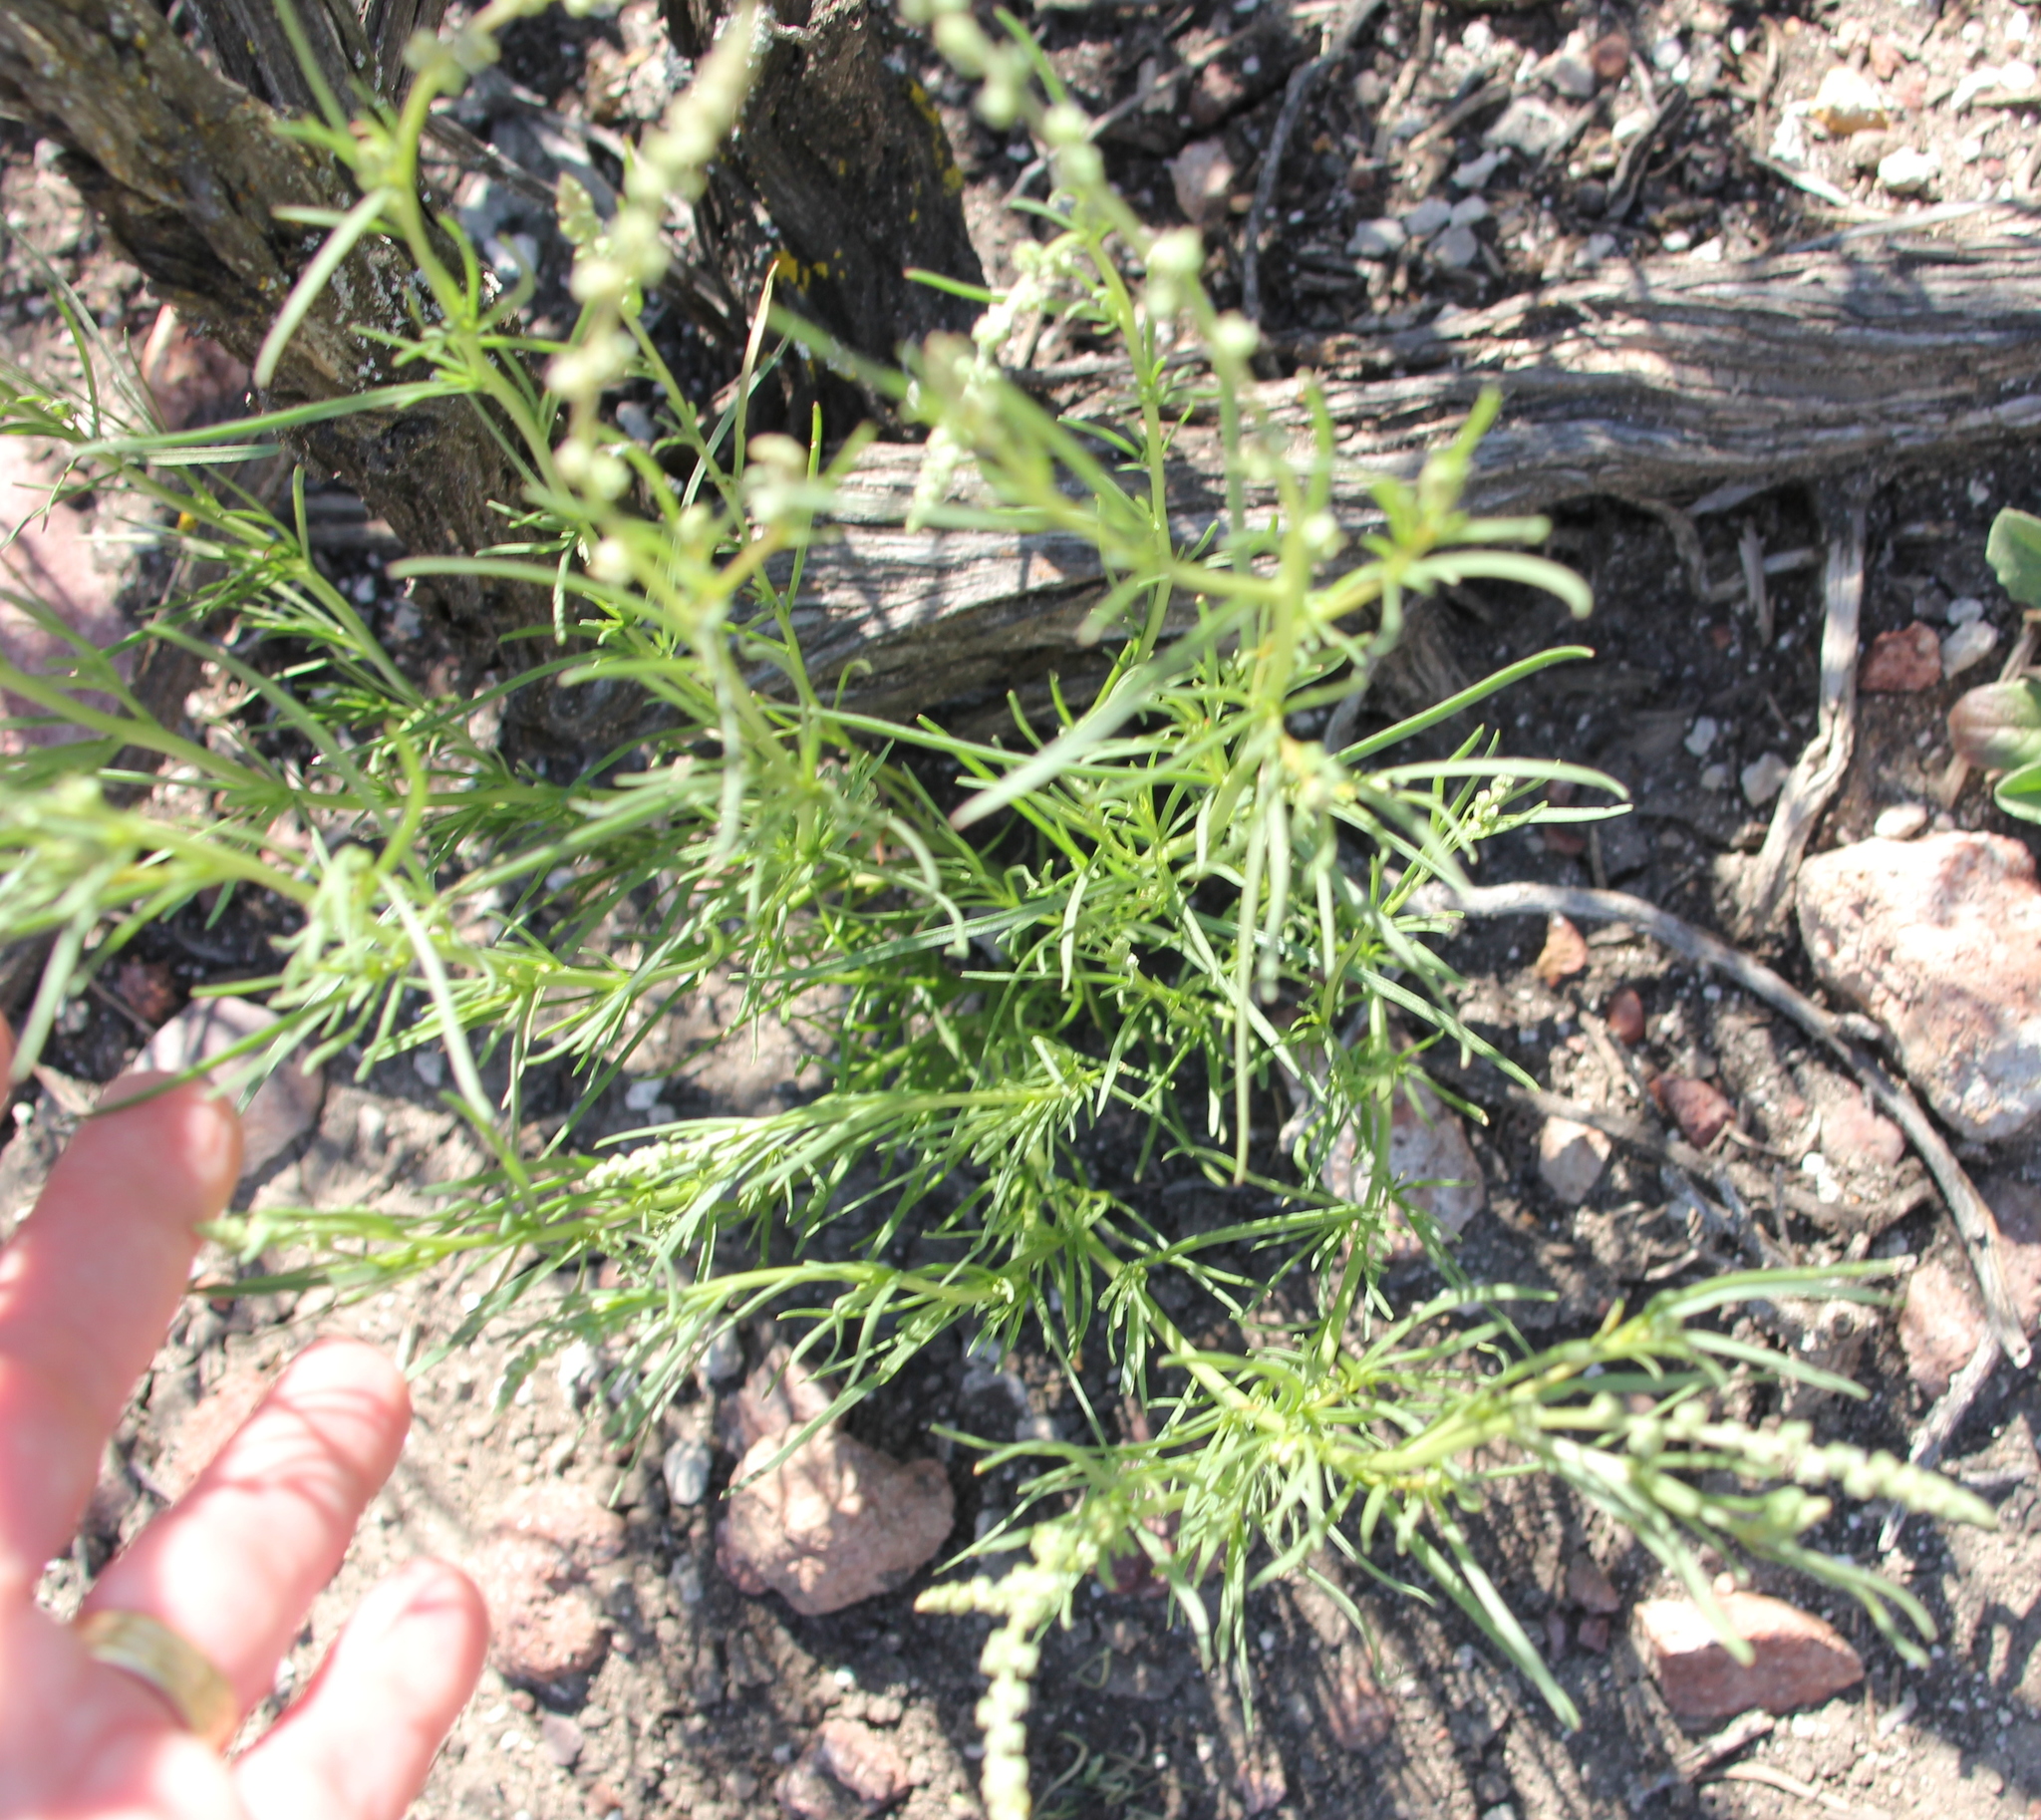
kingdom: Plantae
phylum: Tracheophyta
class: Magnoliopsida
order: Brassicales
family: Resedaceae
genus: Oligomeris
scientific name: Oligomeris linifolia
